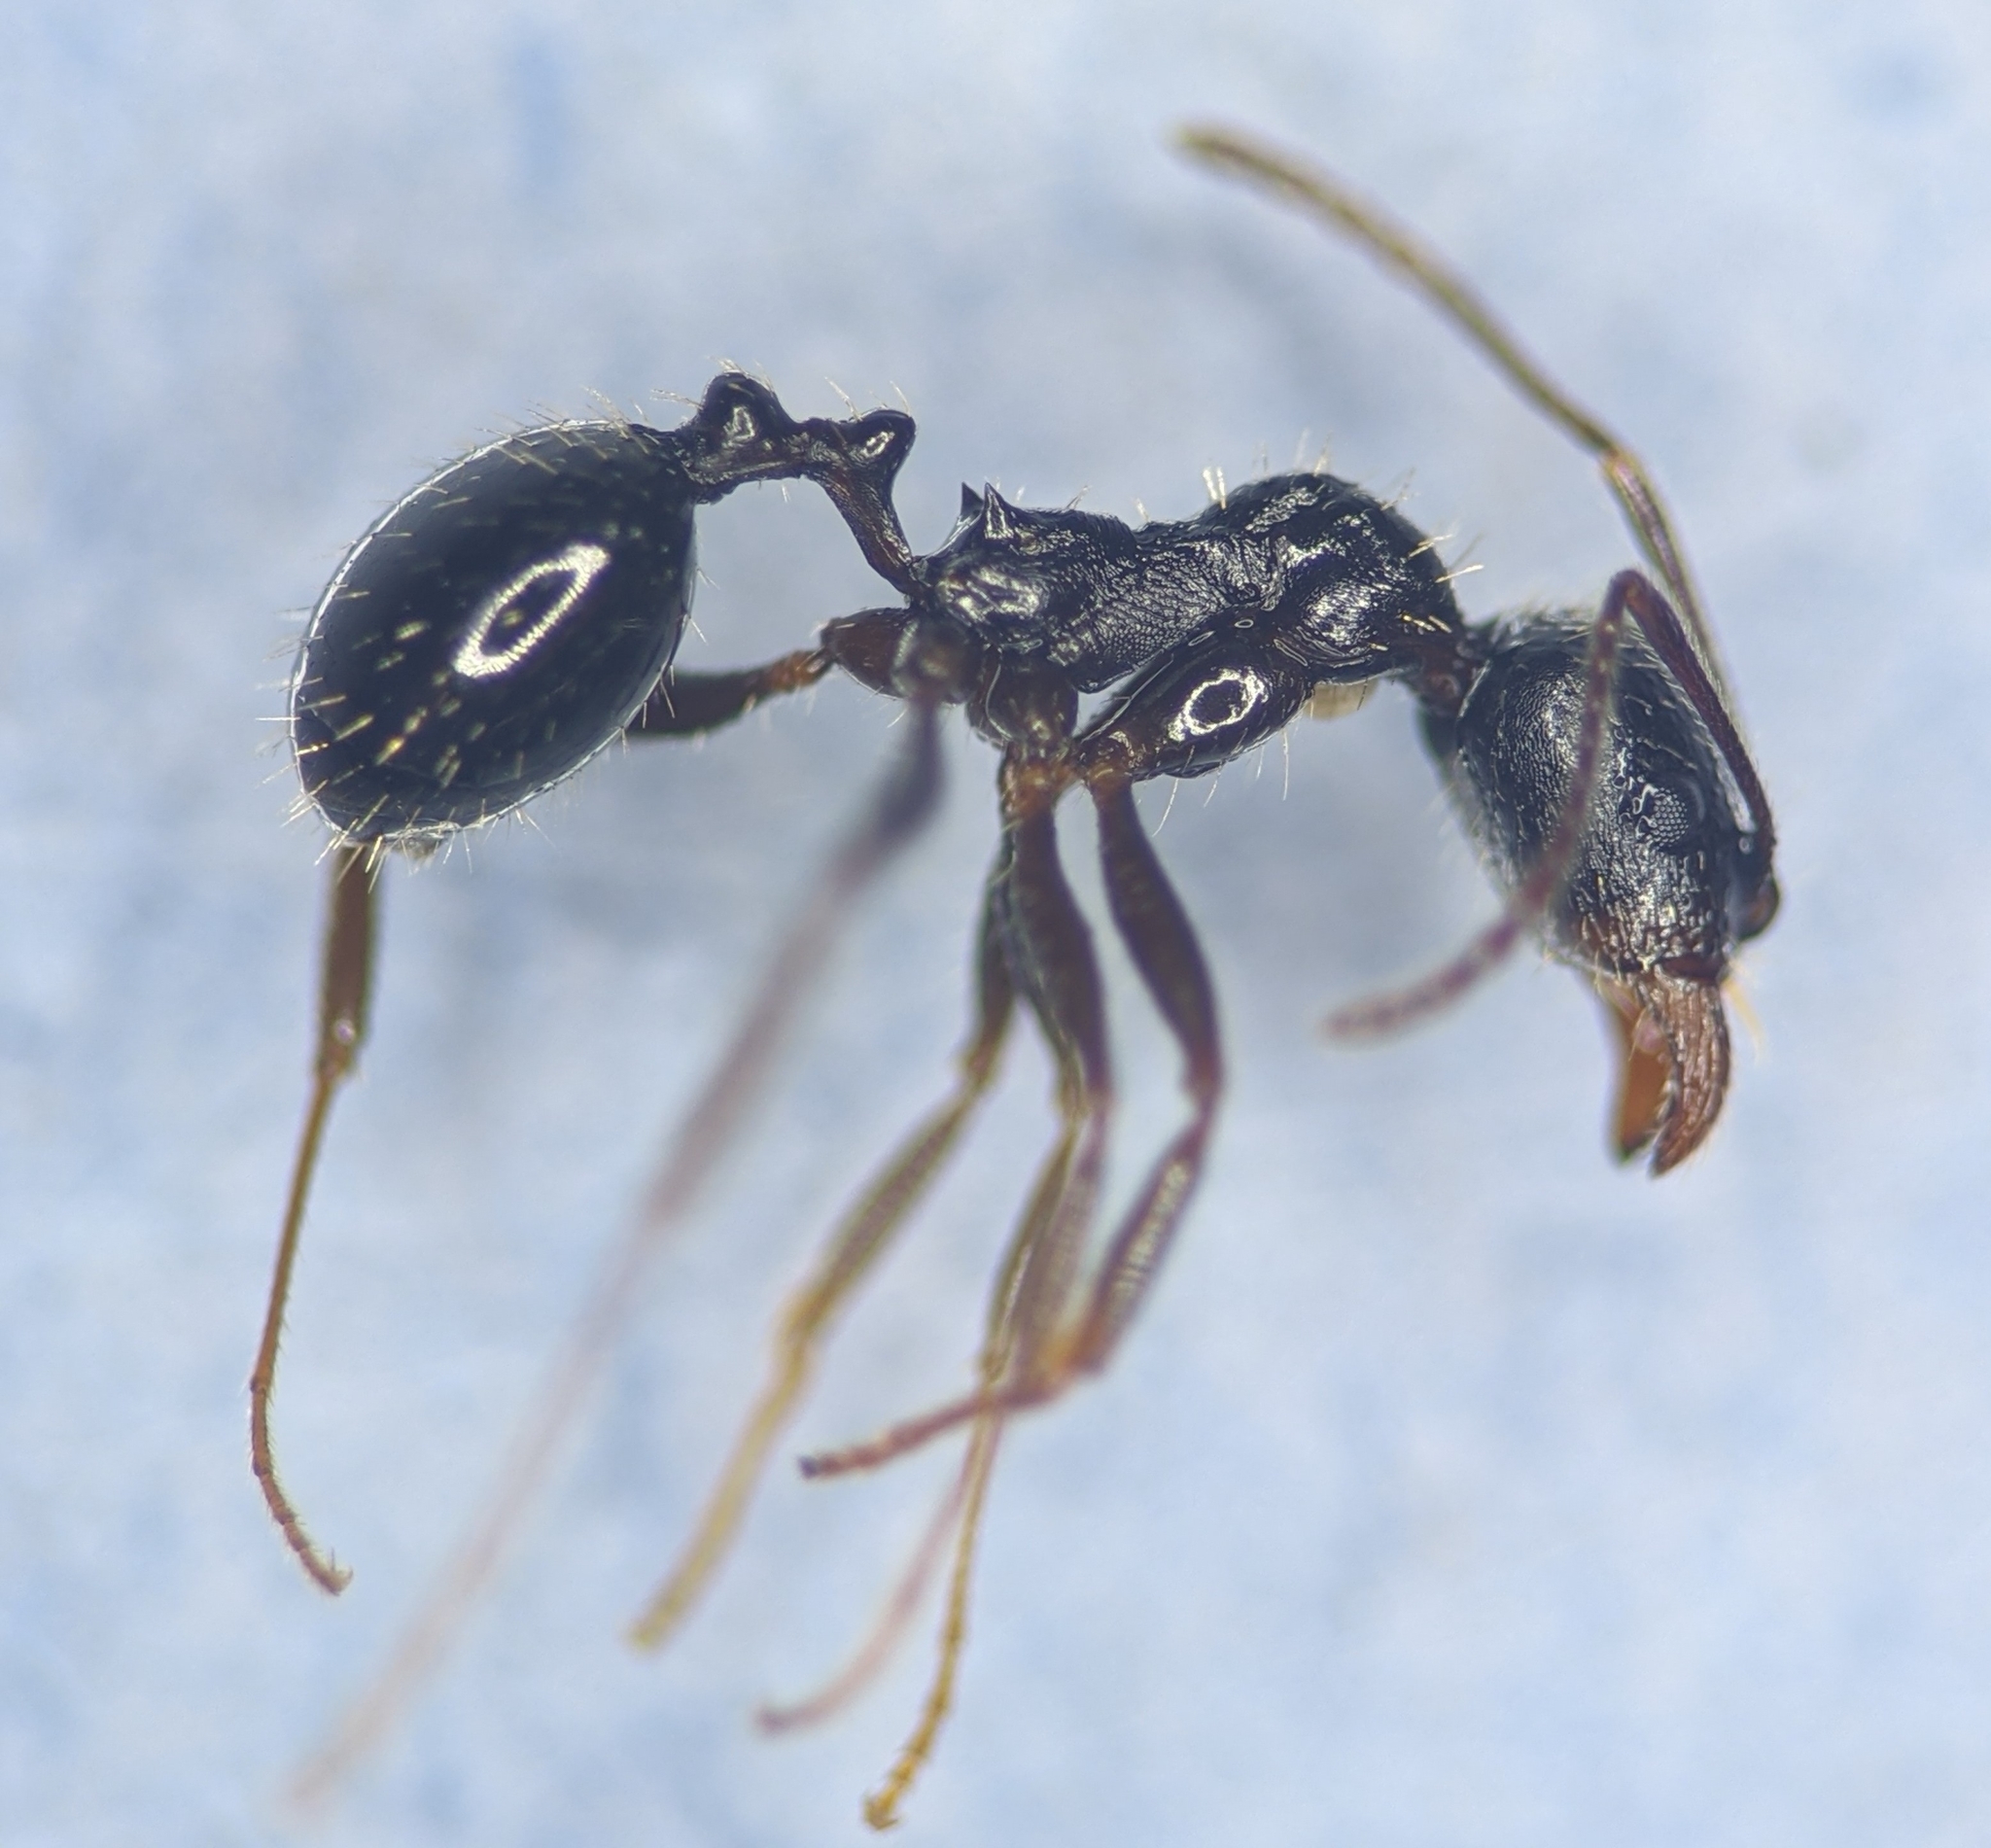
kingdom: Animalia
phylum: Arthropoda
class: Insecta
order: Hymenoptera
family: Formicidae
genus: Aphaenogaster
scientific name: Aphaenogaster gibbosa
